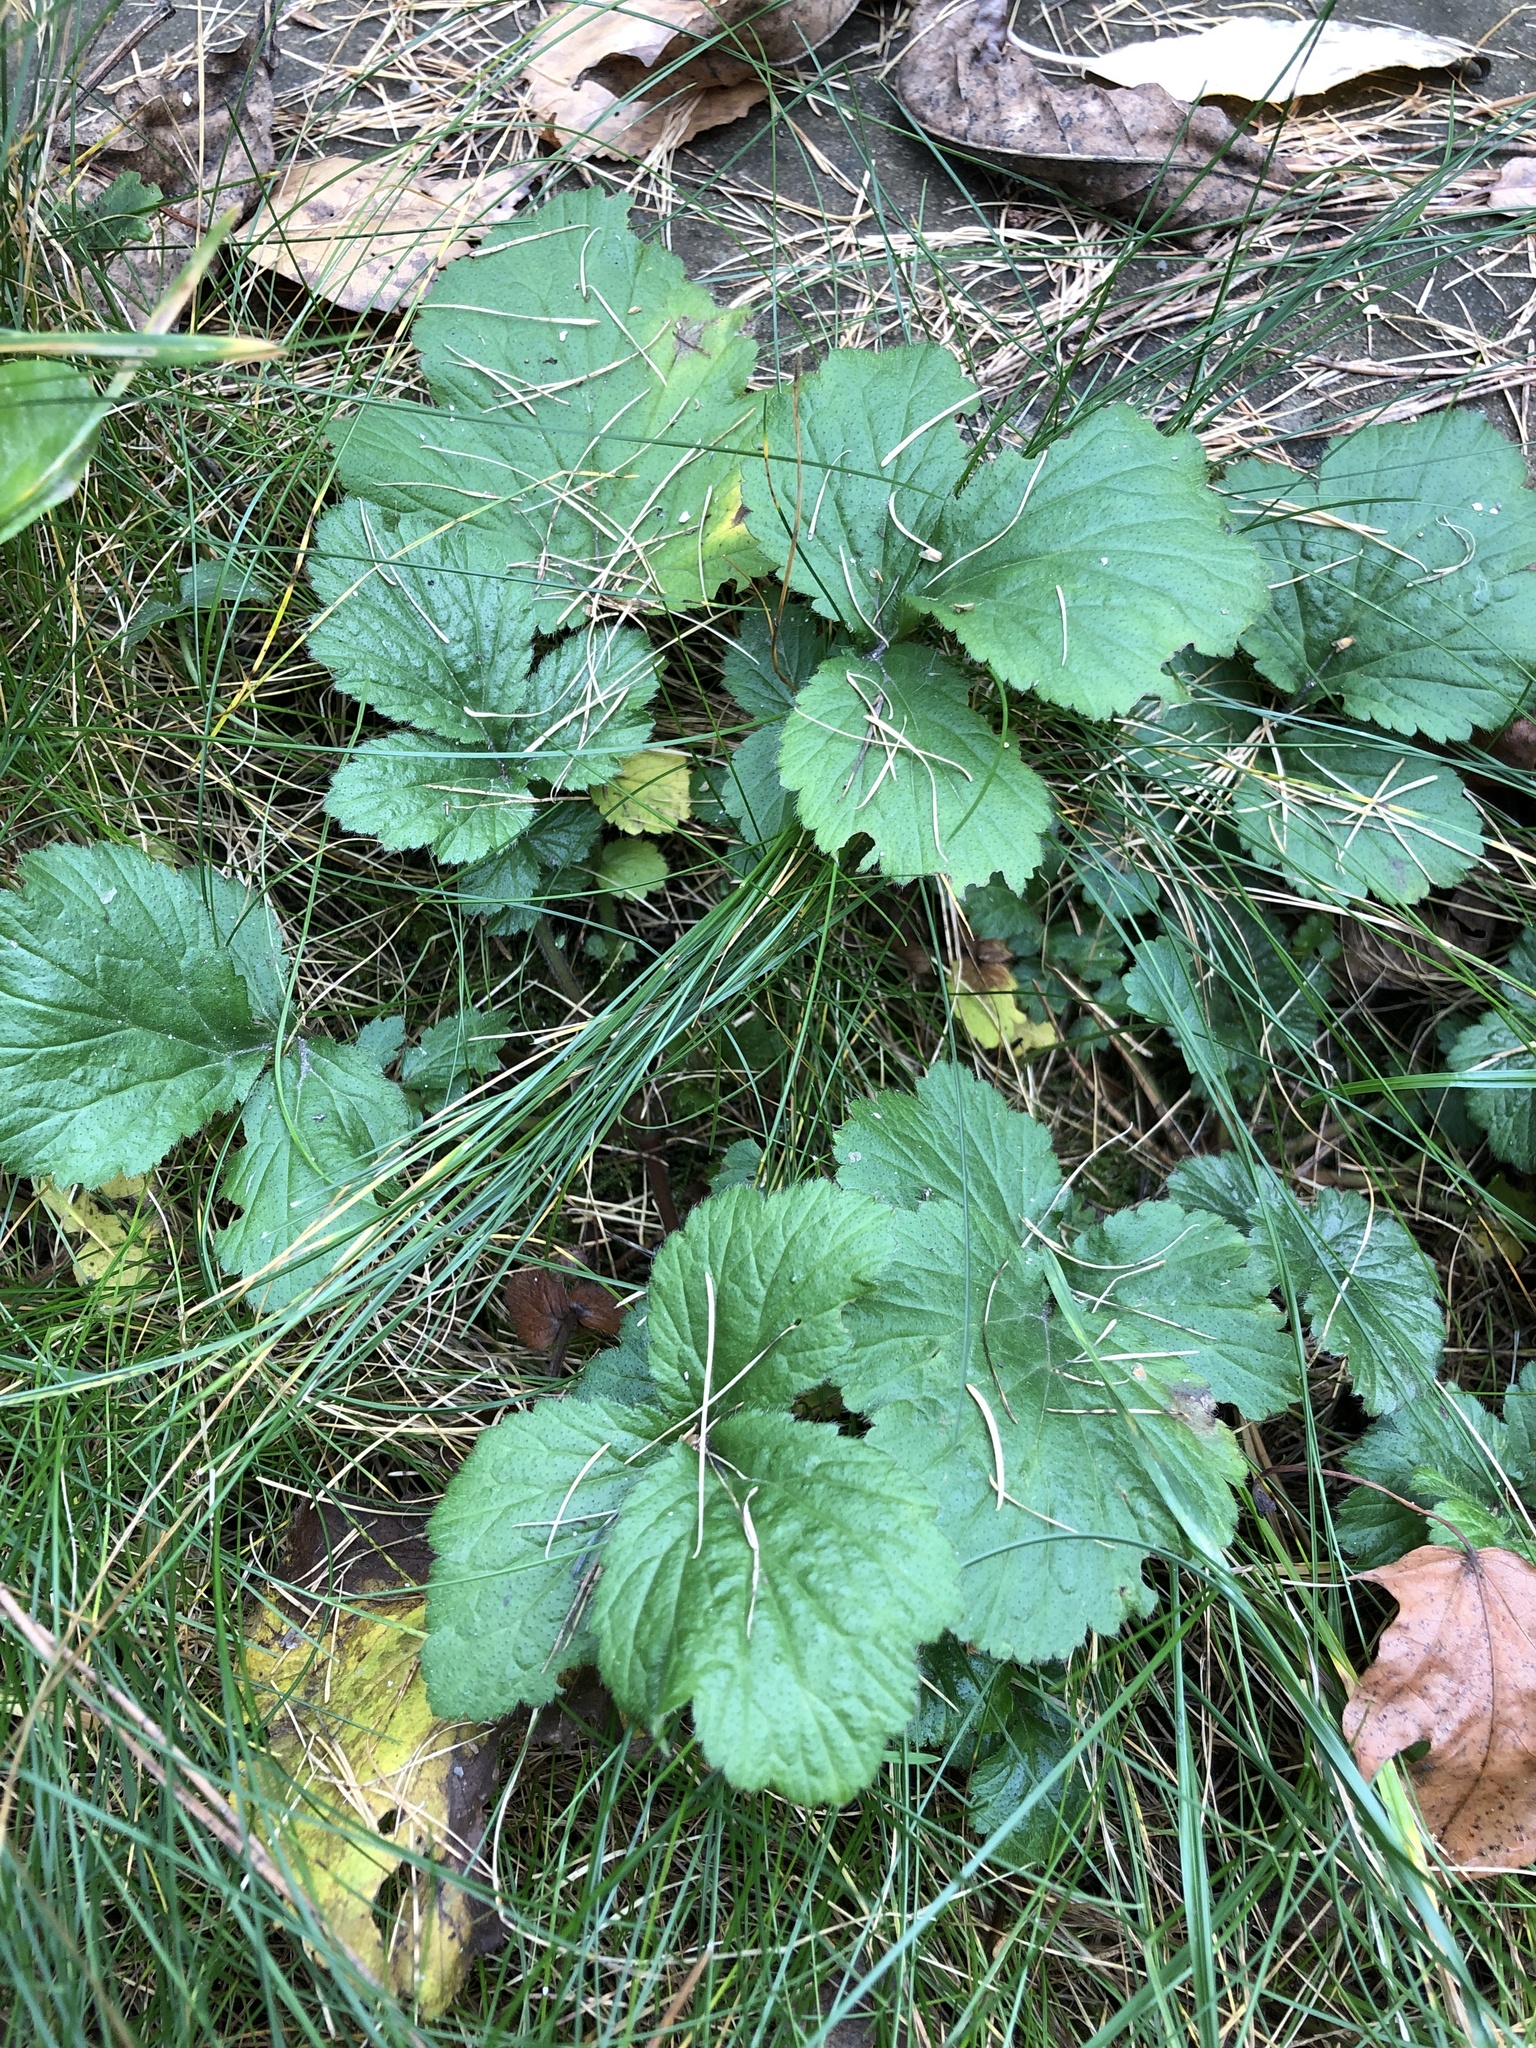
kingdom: Plantae
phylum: Tracheophyta
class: Magnoliopsida
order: Rosales
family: Rosaceae
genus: Geum
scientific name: Geum urbanum
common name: Wood avens
